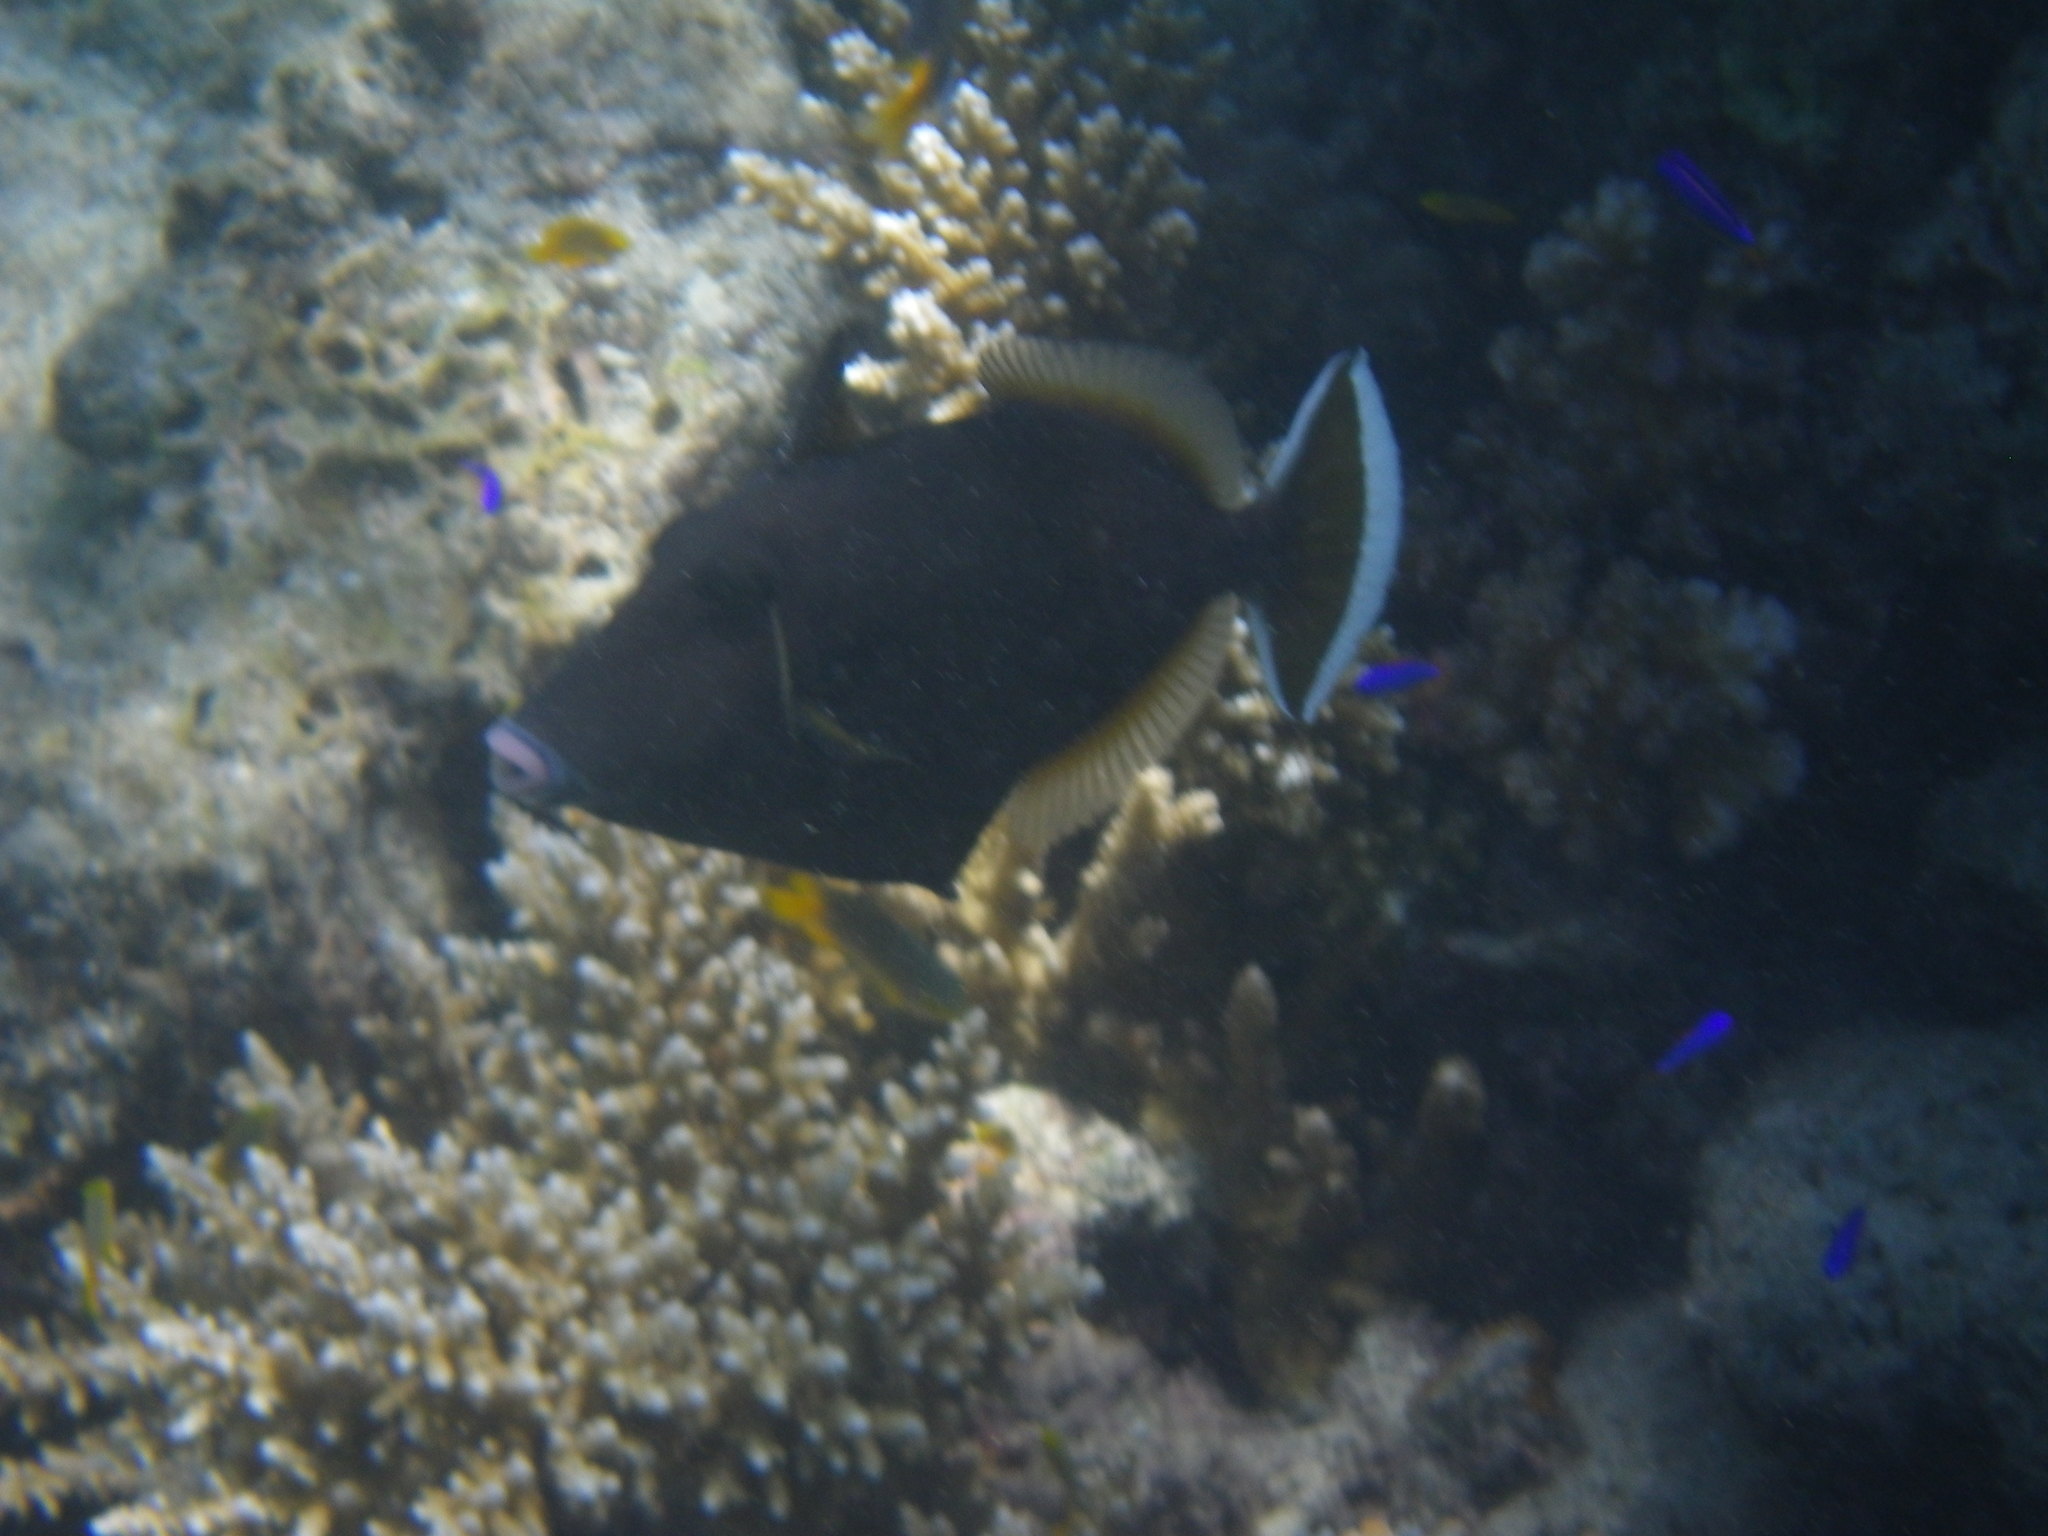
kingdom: Animalia
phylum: Chordata
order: Tetraodontiformes
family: Balistidae
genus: Sufflamen
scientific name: Sufflamen chrysopterum
